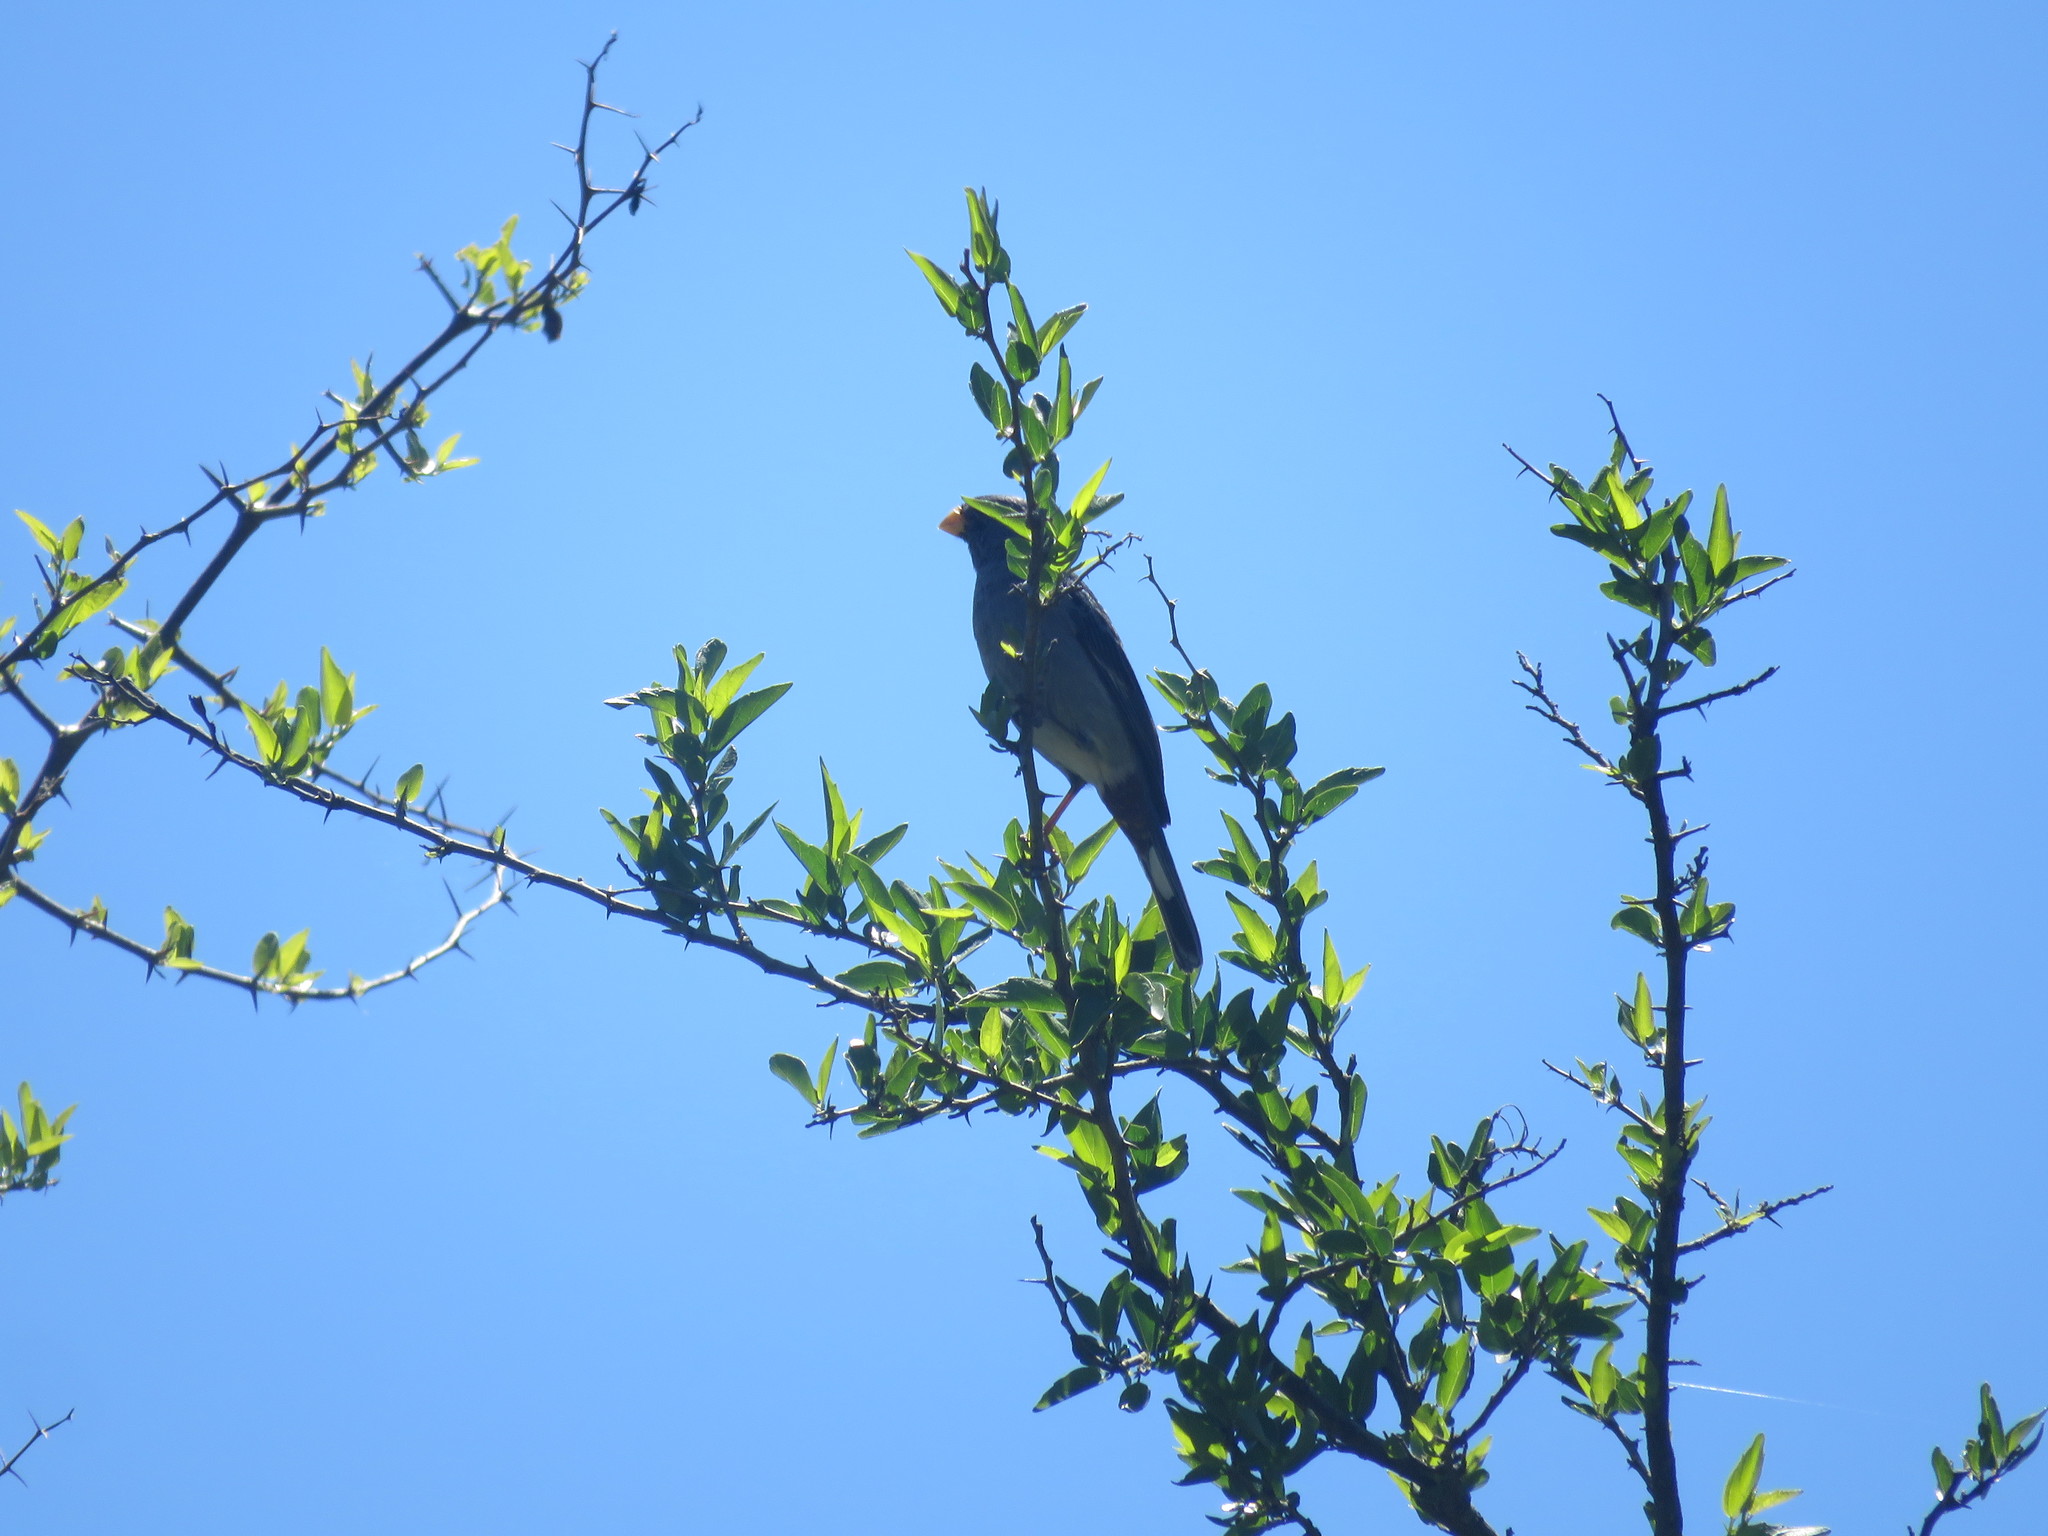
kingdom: Animalia
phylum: Chordata
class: Aves
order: Passeriformes
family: Thraupidae
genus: Catamenia
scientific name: Catamenia analis
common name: Band-tailed seedeater
